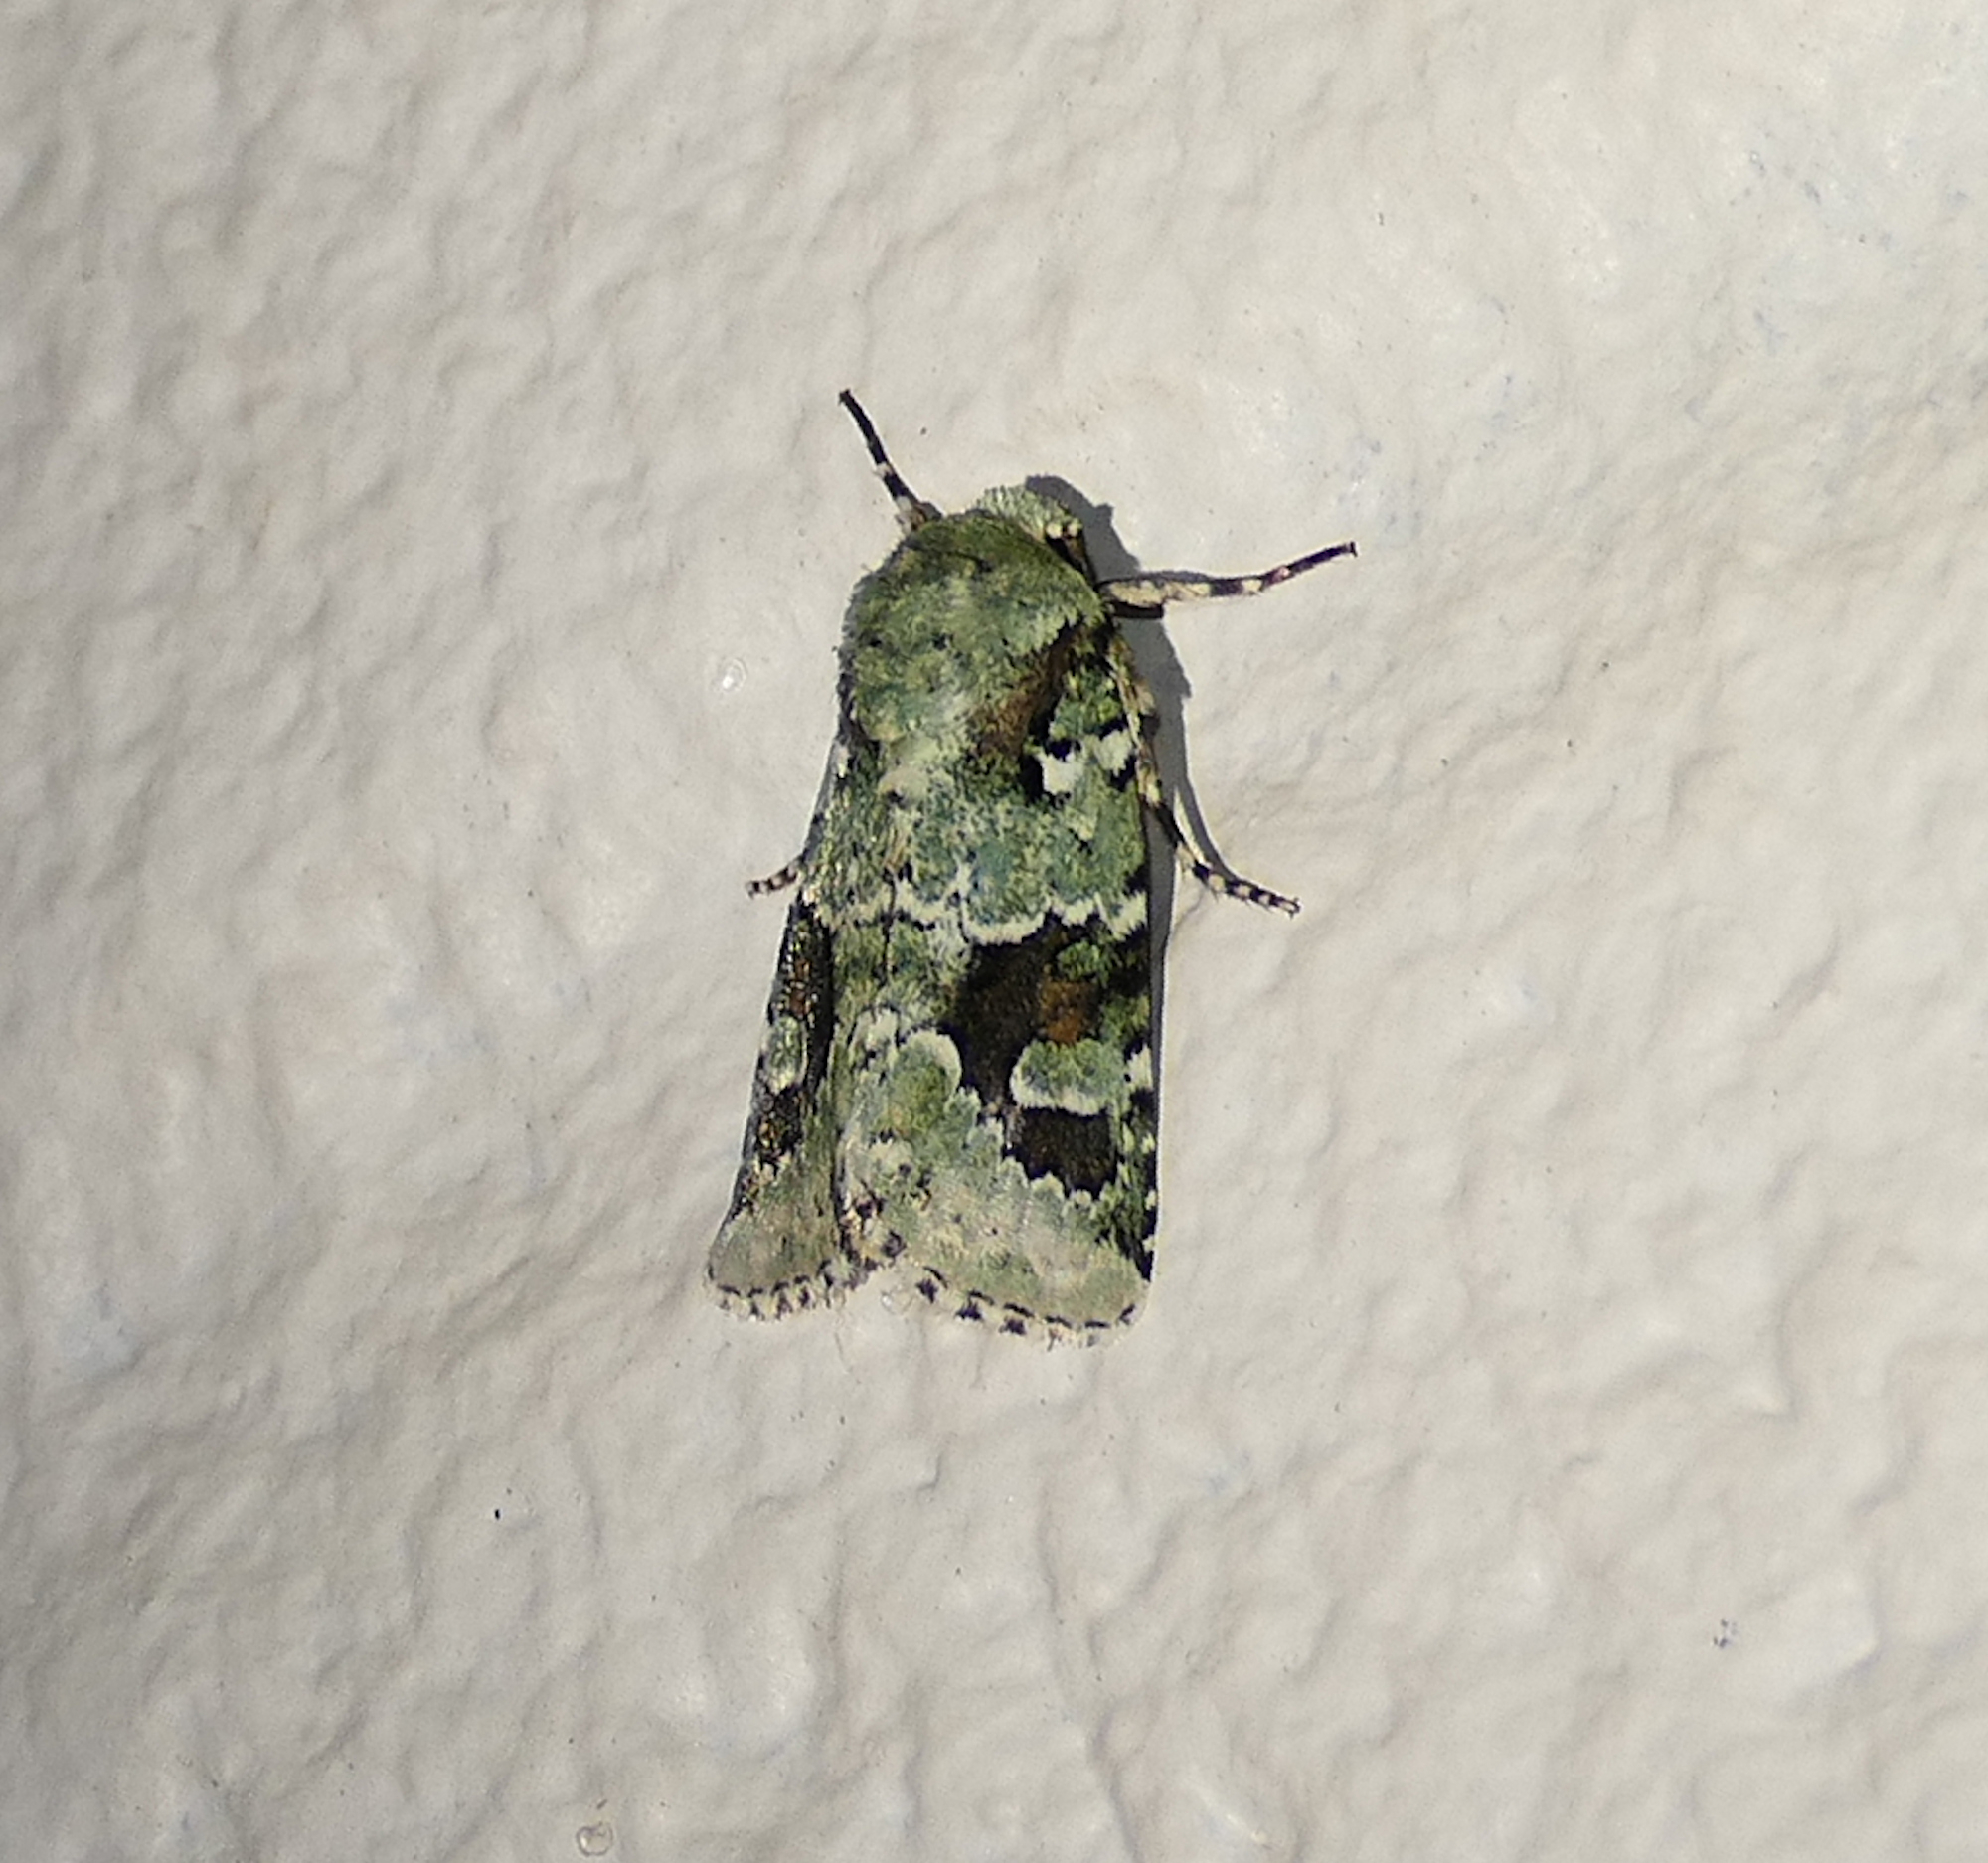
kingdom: Animalia
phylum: Arthropoda
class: Insecta
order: Lepidoptera
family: Noctuidae
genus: Lacinipolia
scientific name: Lacinipolia laudabilis
